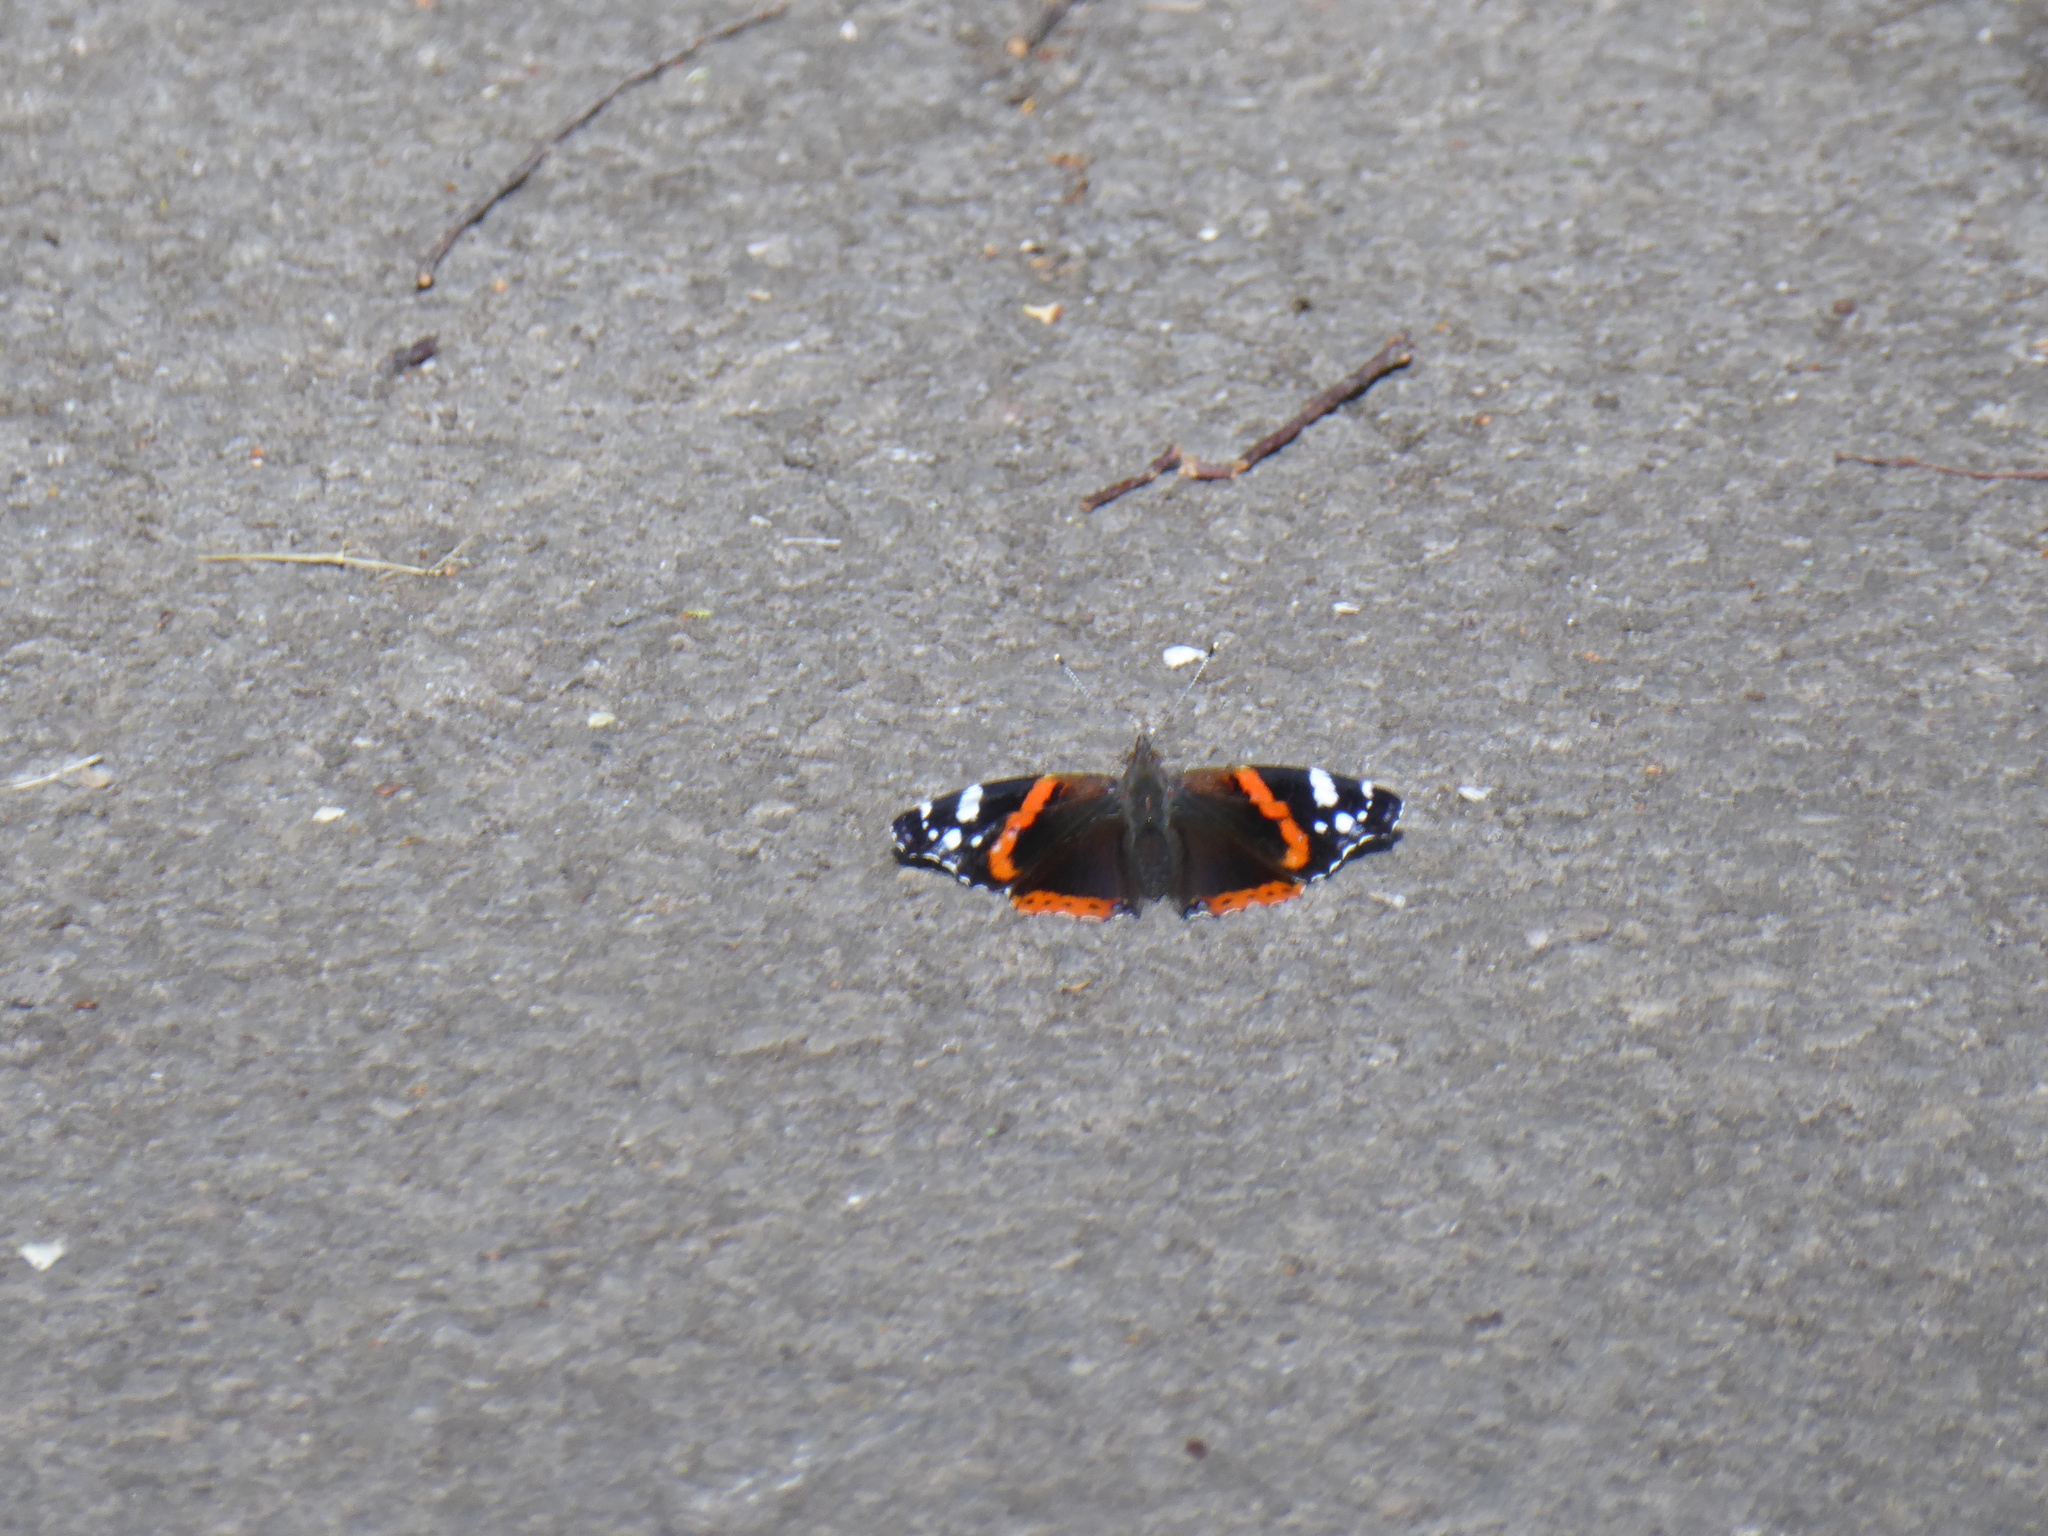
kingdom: Animalia
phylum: Arthropoda
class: Insecta
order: Lepidoptera
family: Nymphalidae
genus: Vanessa
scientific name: Vanessa atalanta
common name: Red admiral
